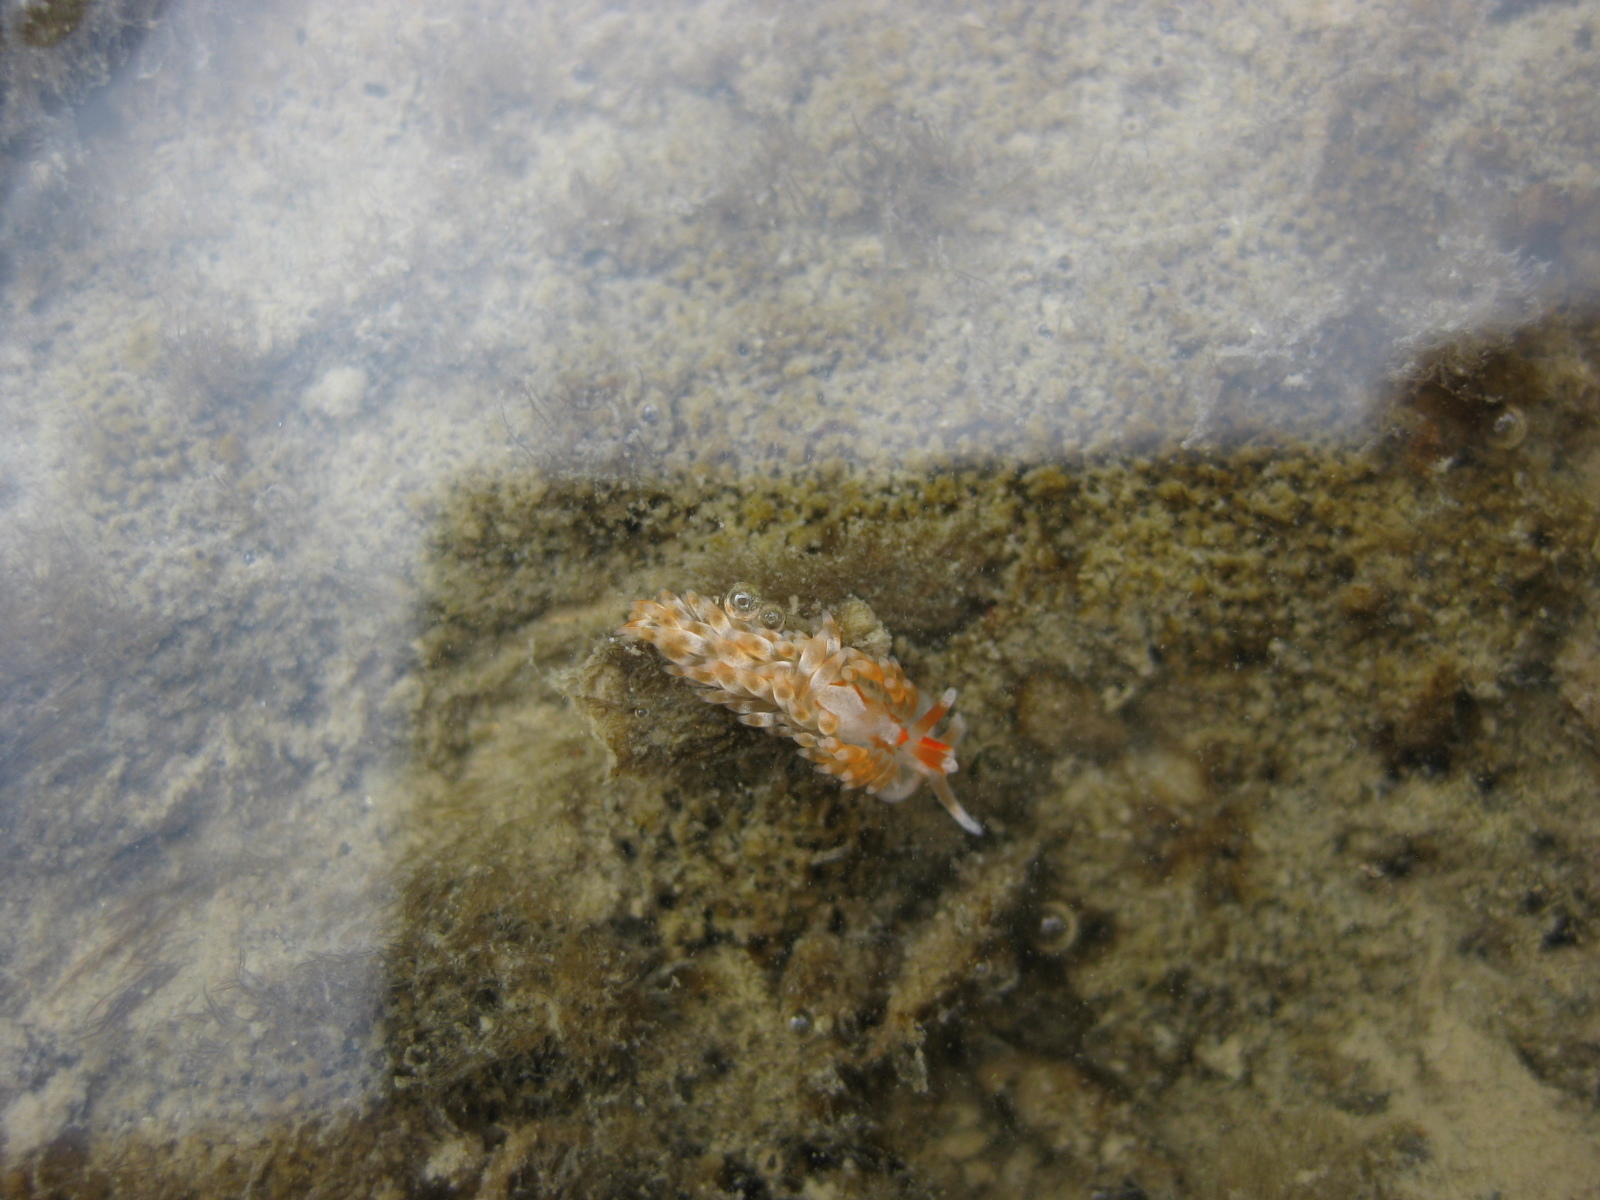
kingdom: Animalia
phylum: Mollusca
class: Gastropoda
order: Nudibranchia
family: Aeolidiidae
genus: Anteaeolidiella
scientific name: Anteaeolidiella lurana
